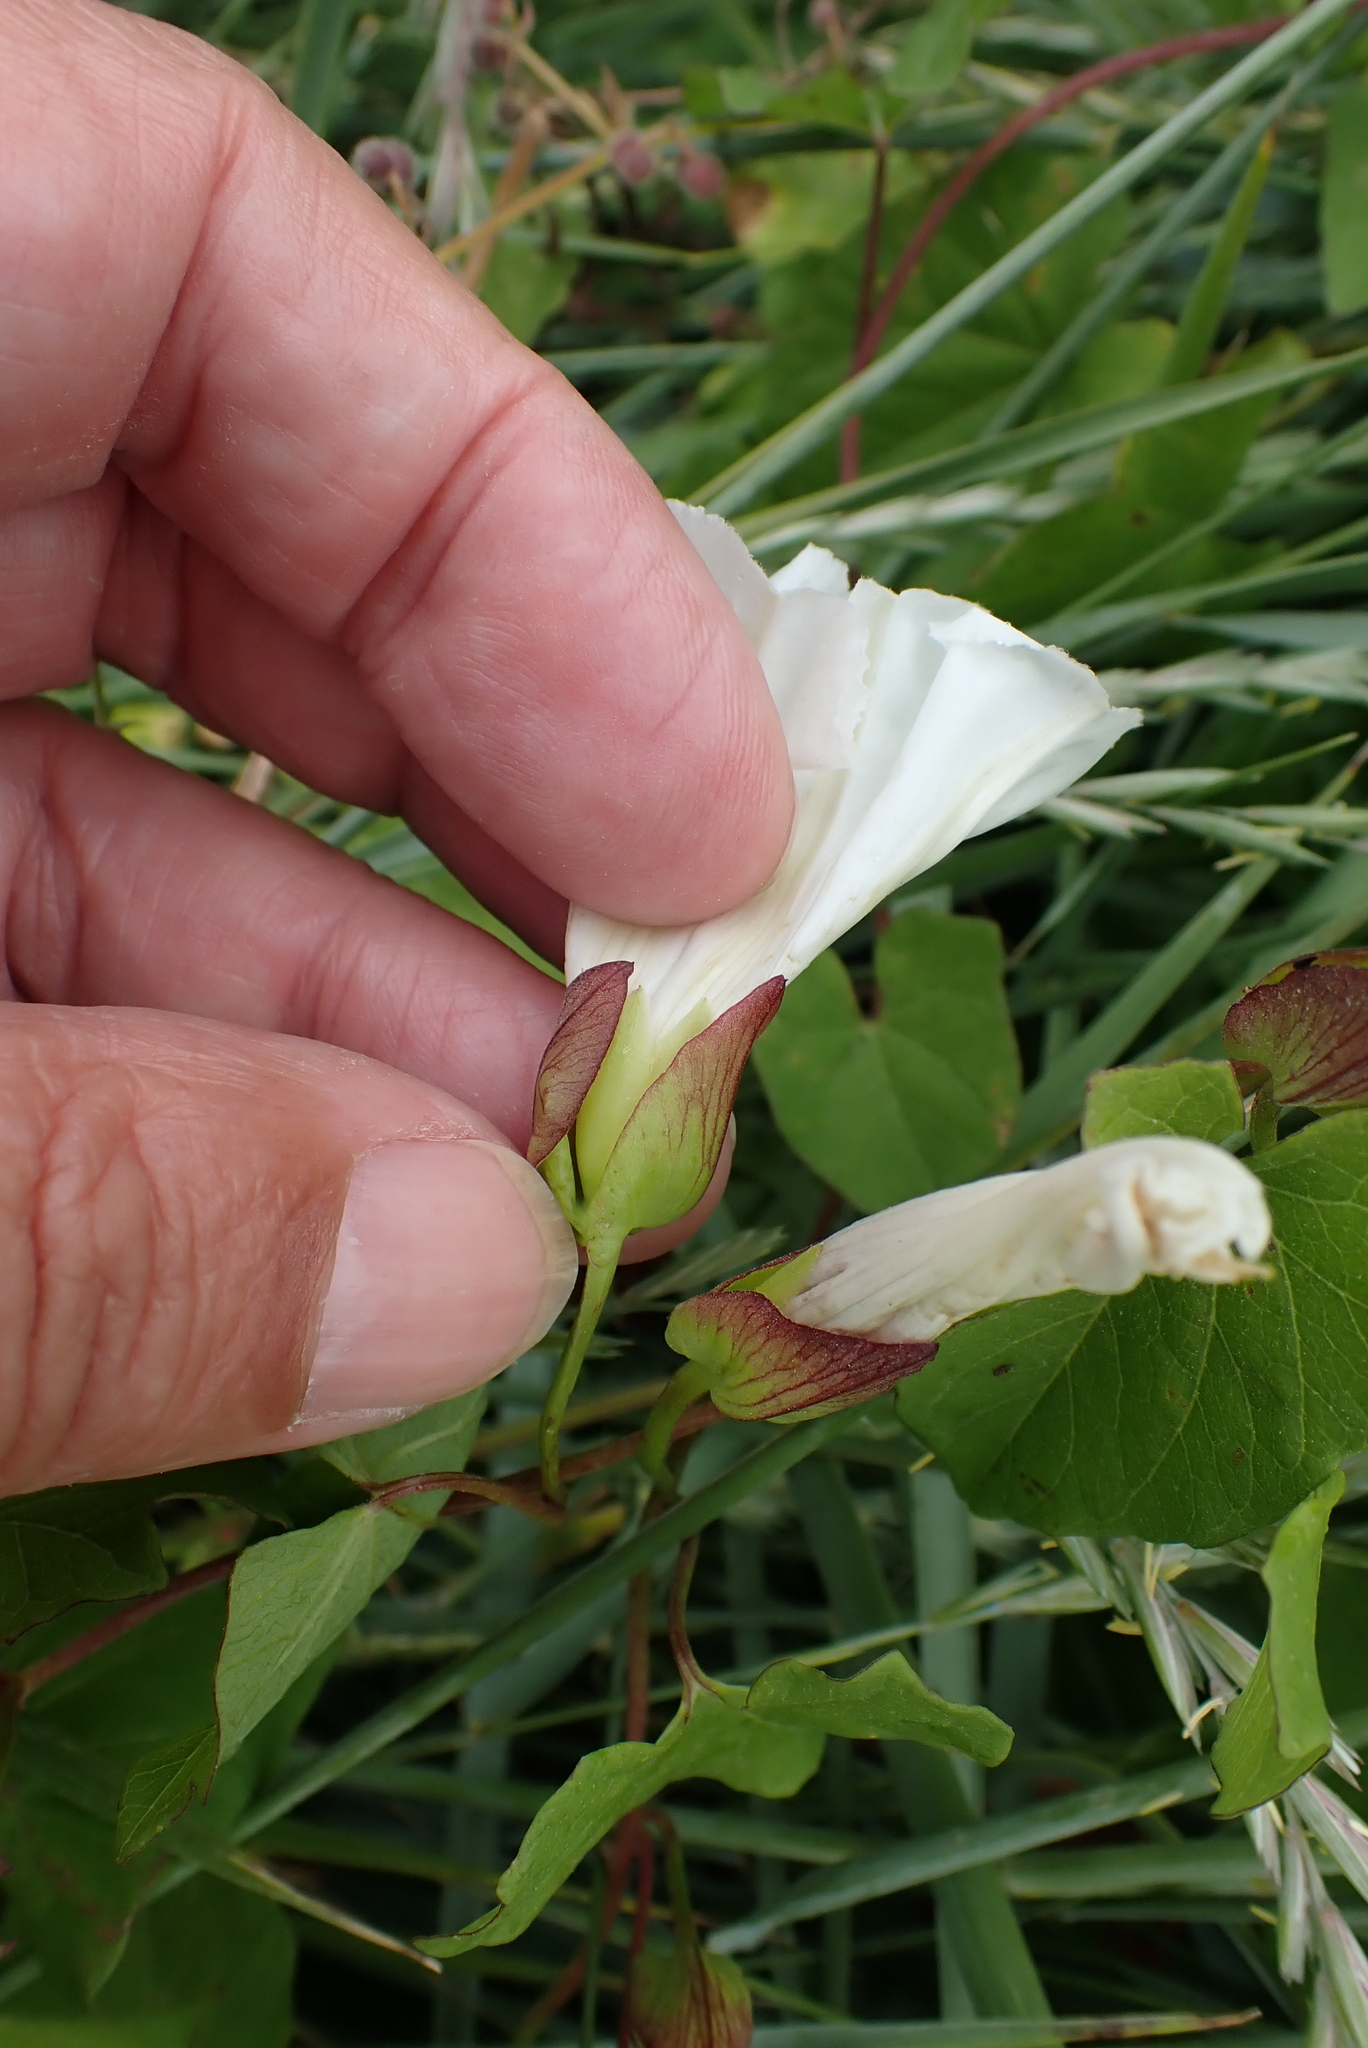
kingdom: Plantae
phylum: Tracheophyta
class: Magnoliopsida
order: Solanales
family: Convolvulaceae
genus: Calystegia
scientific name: Calystegia sepium
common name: Hedge bindweed
